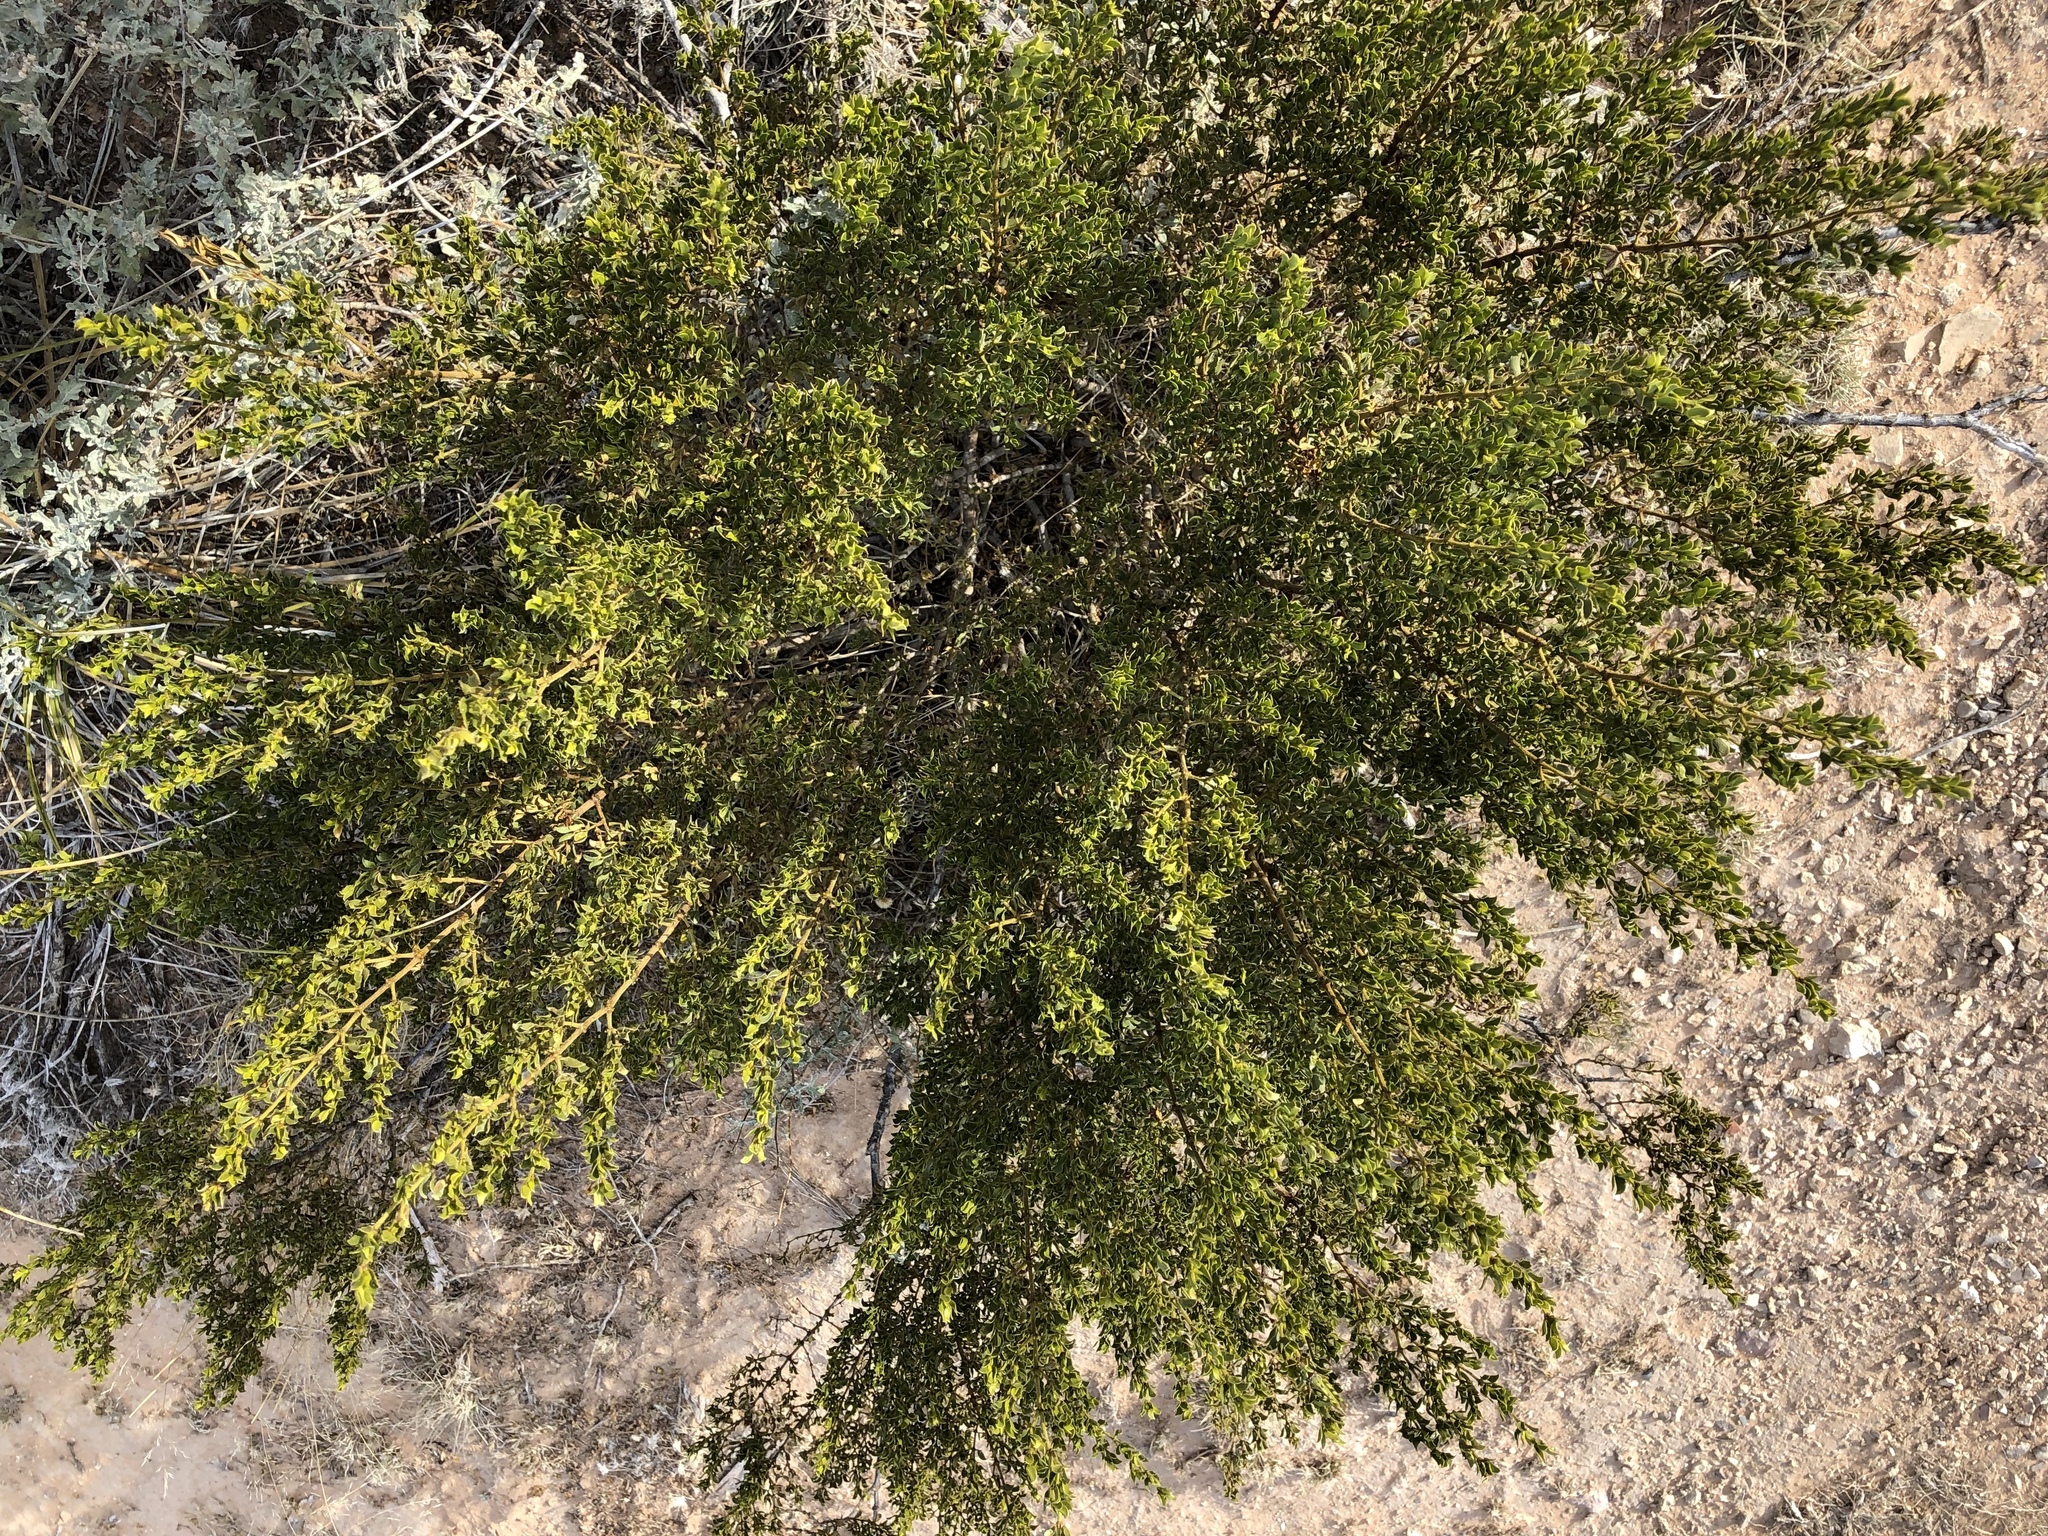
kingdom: Plantae
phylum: Tracheophyta
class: Magnoliopsida
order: Zygophyllales
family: Zygophyllaceae
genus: Larrea
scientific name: Larrea tridentata
